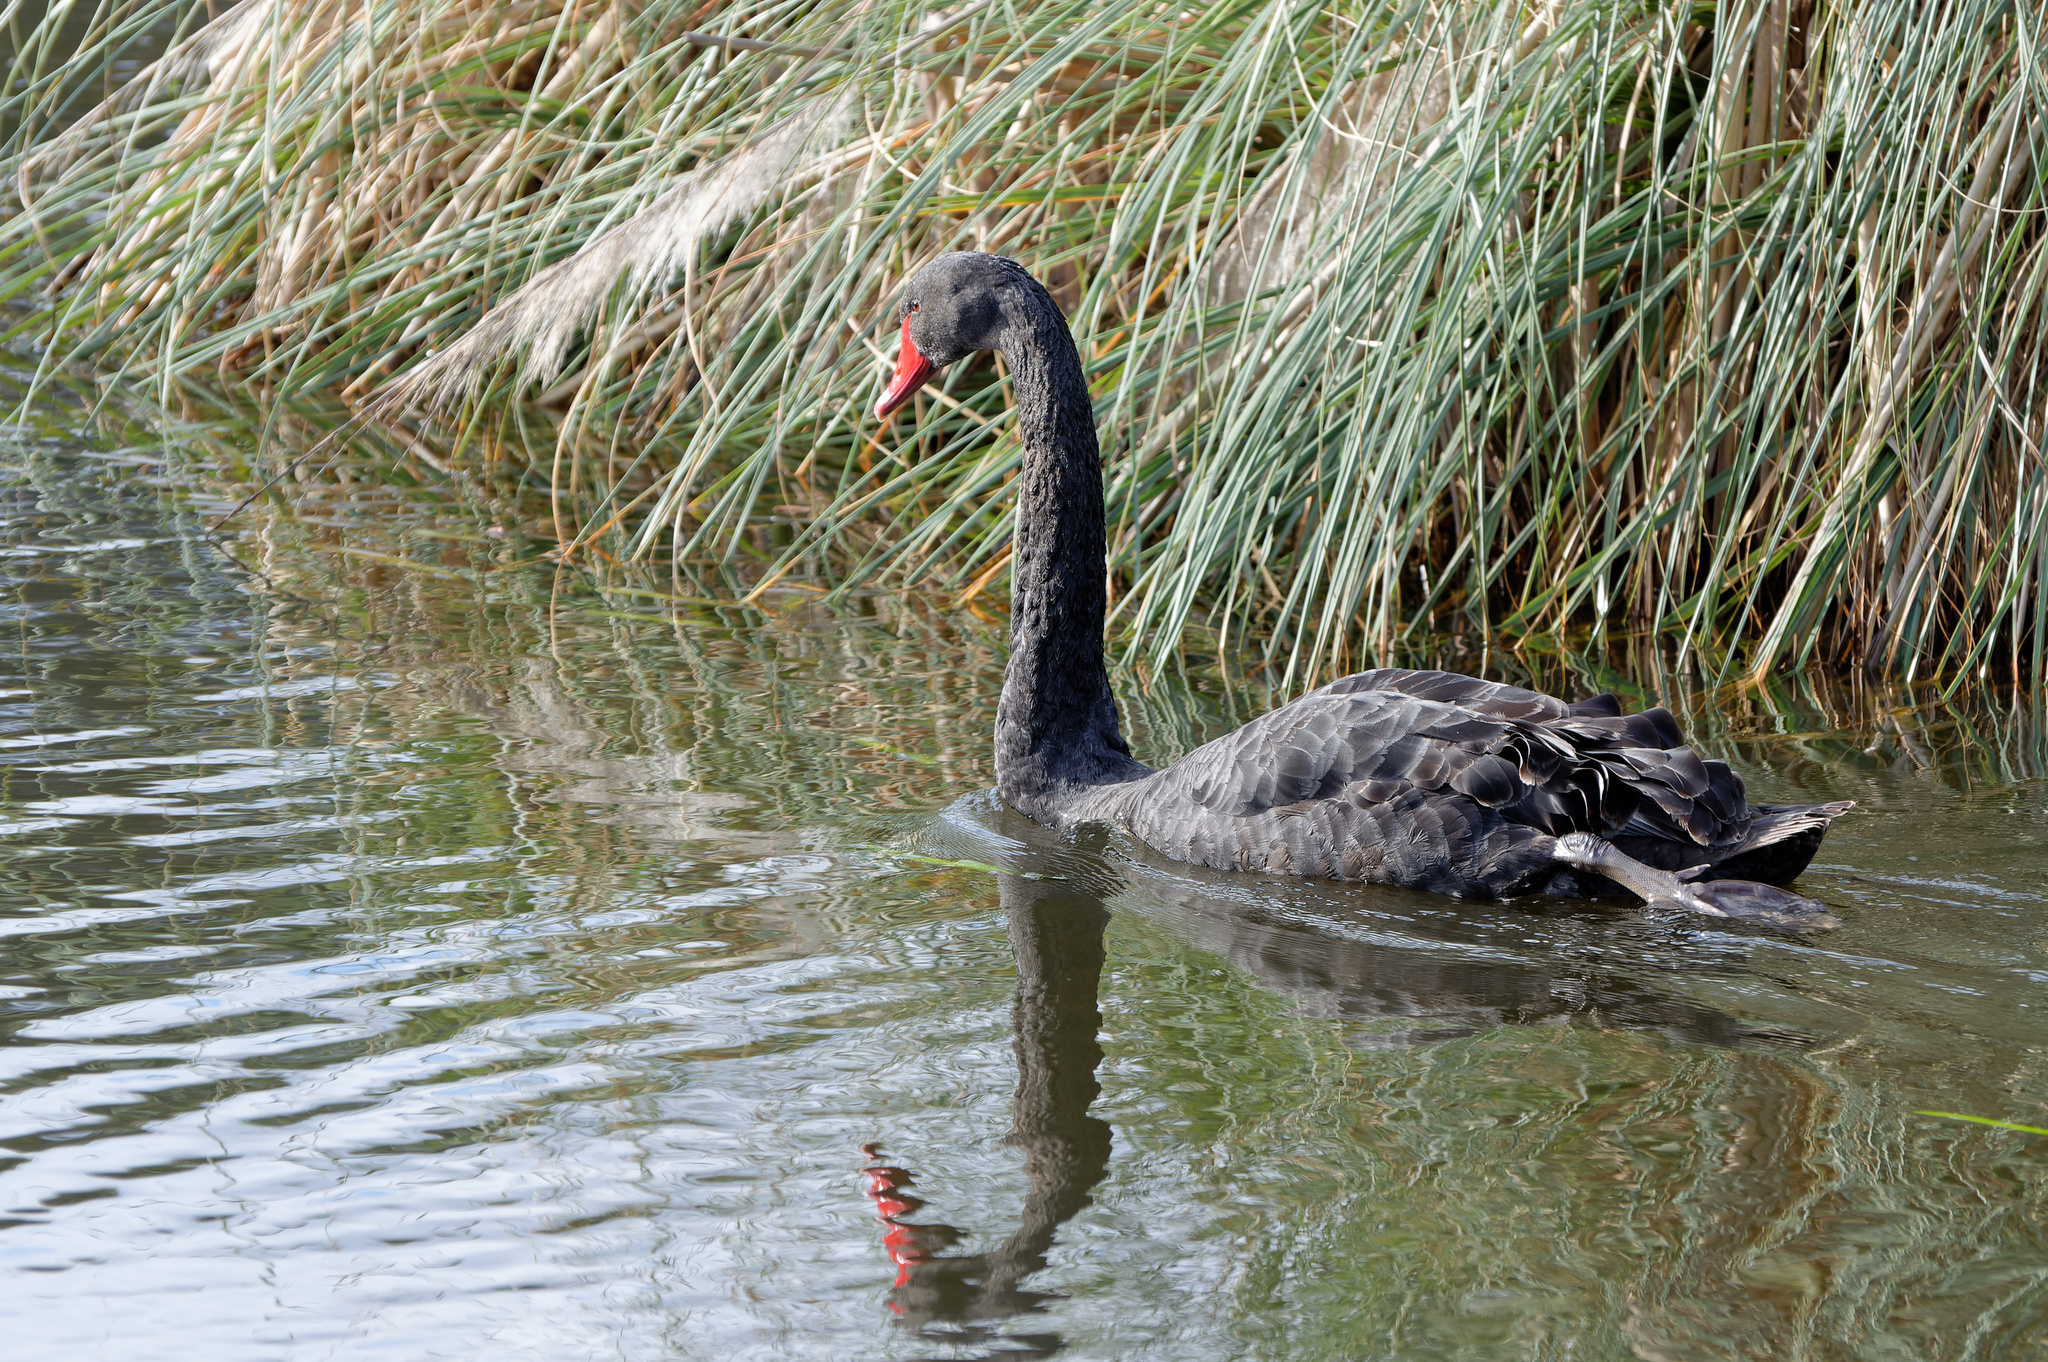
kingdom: Animalia
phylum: Chordata
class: Aves
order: Anseriformes
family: Anatidae
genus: Cygnus
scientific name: Cygnus atratus
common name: Black swan
